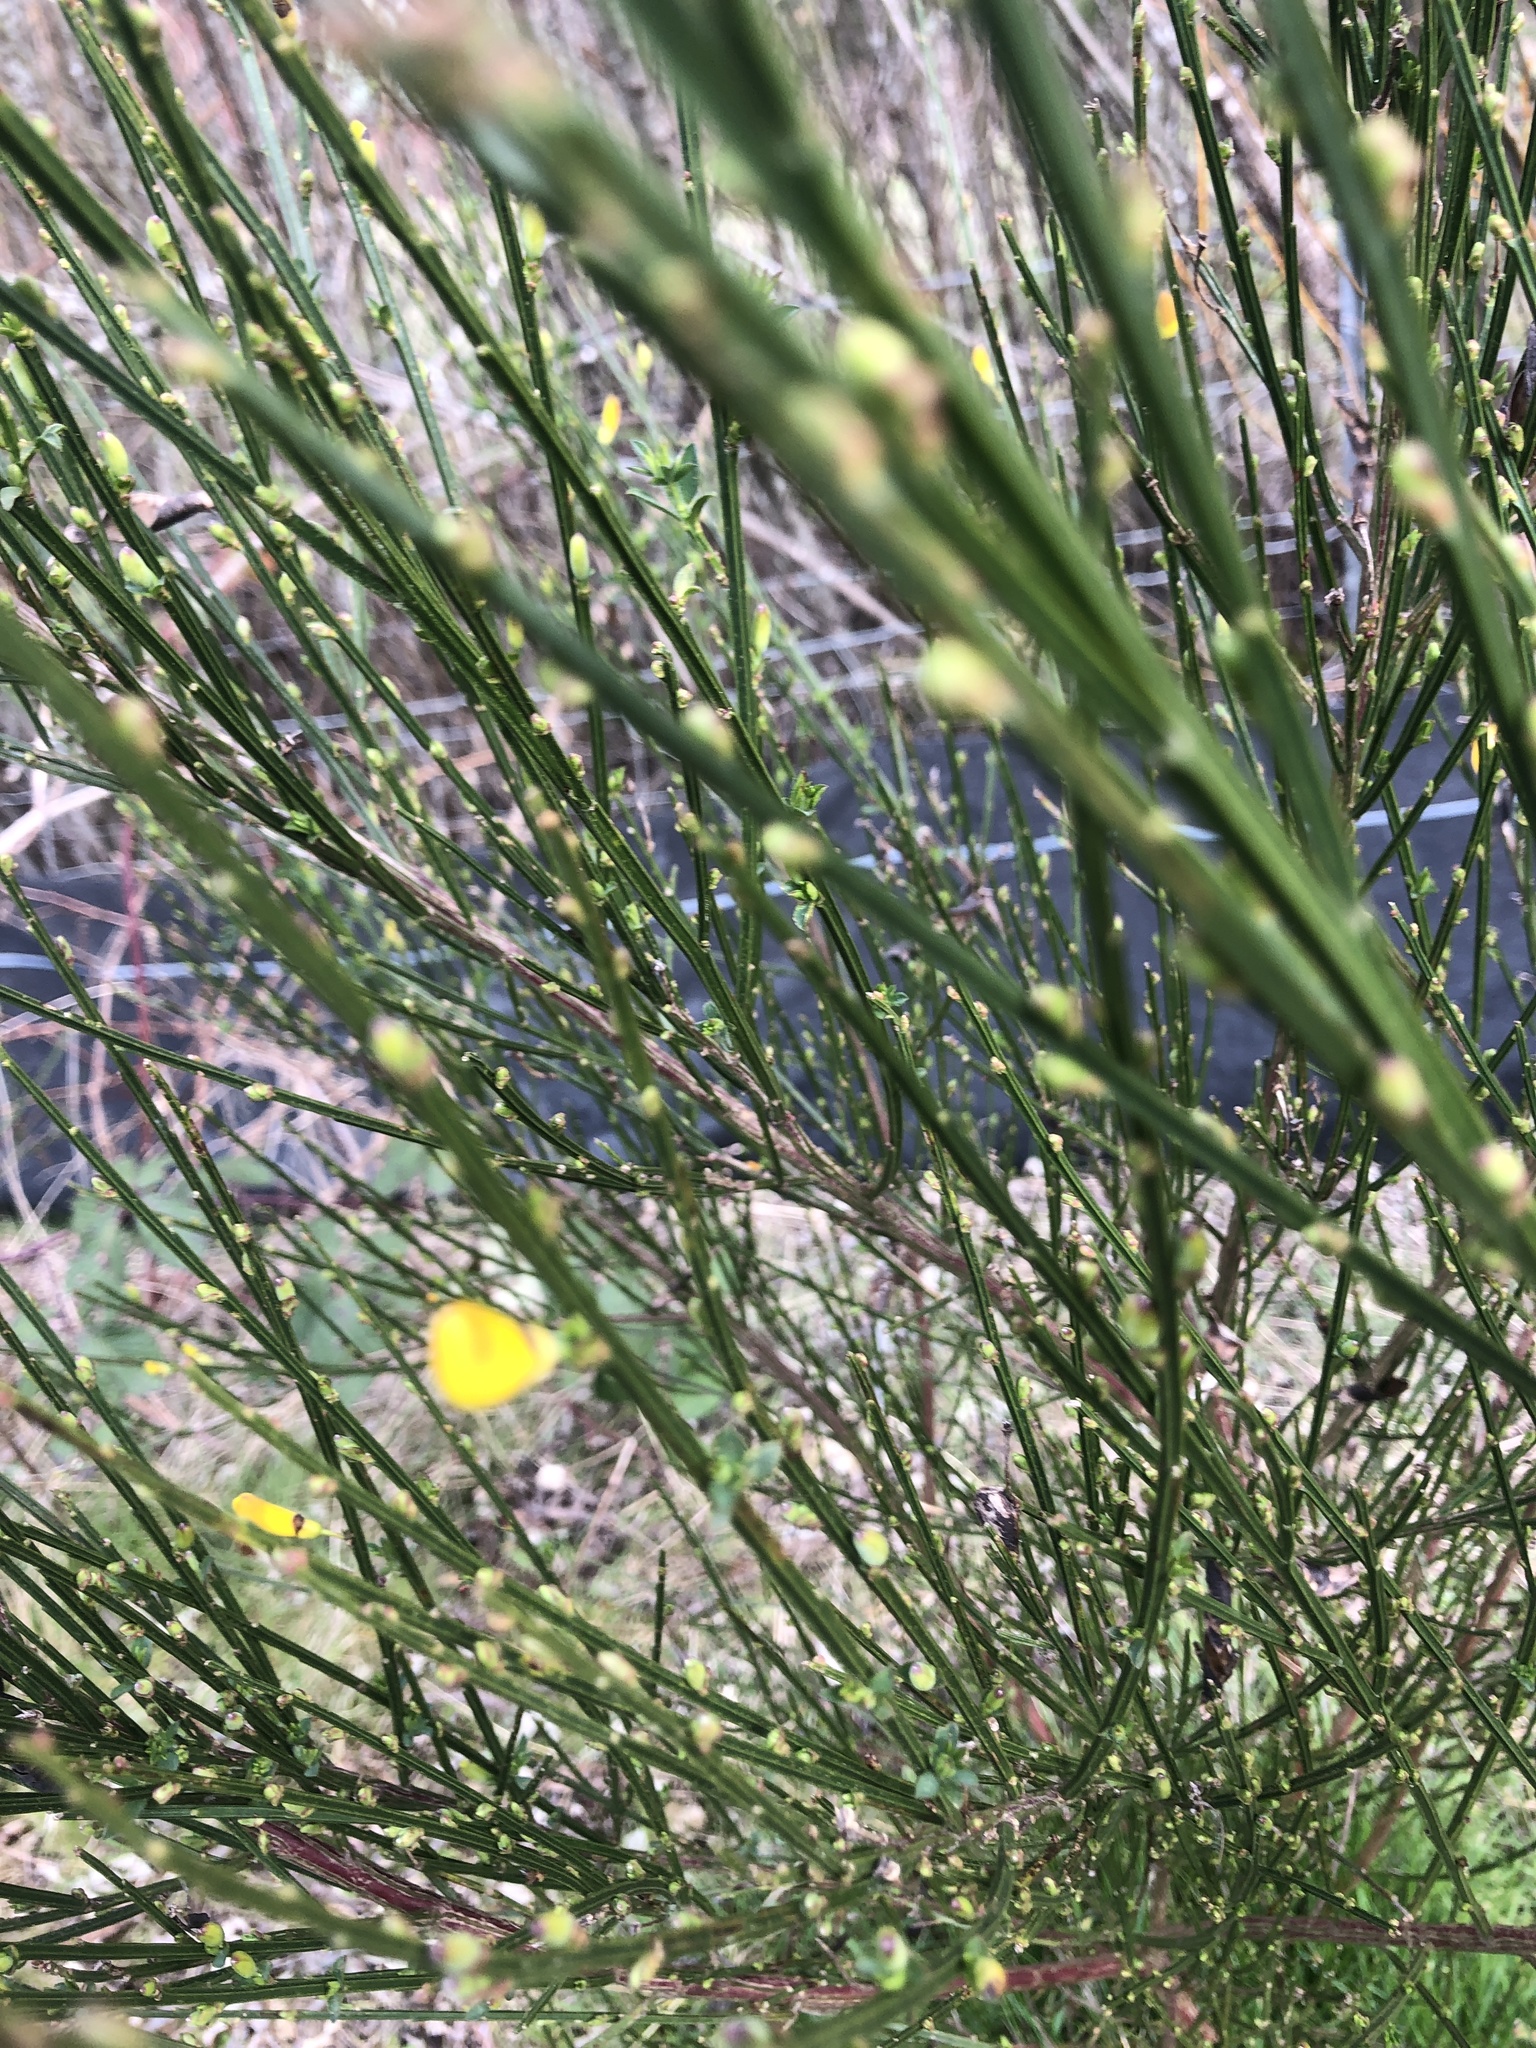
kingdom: Plantae
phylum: Tracheophyta
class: Magnoliopsida
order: Fabales
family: Fabaceae
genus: Cytisus
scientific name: Cytisus scoparius
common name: Scotch broom
